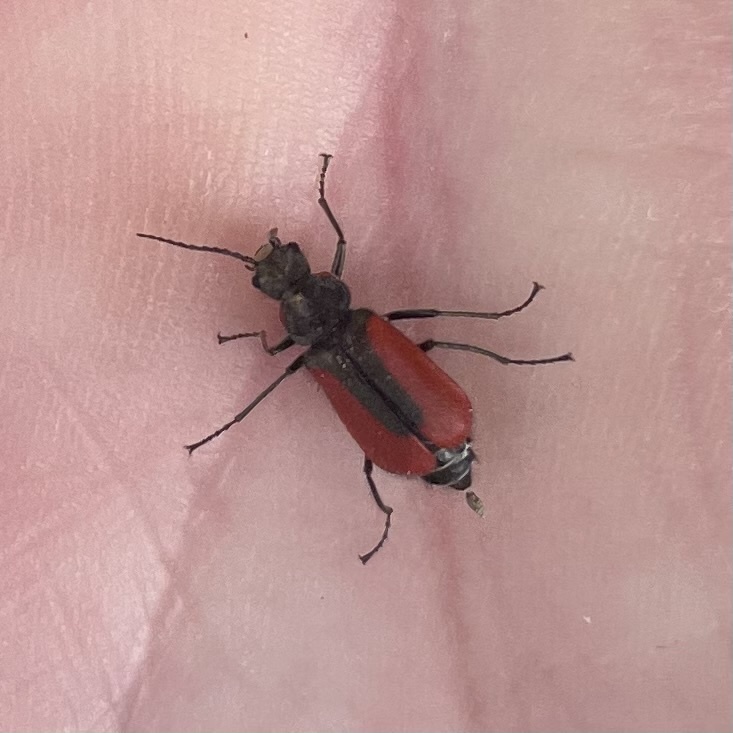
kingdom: Animalia
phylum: Arthropoda
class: Insecta
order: Coleoptera
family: Melyridae
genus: Malachius
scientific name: Malachius aeneus
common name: Scarlet malachite beetle
